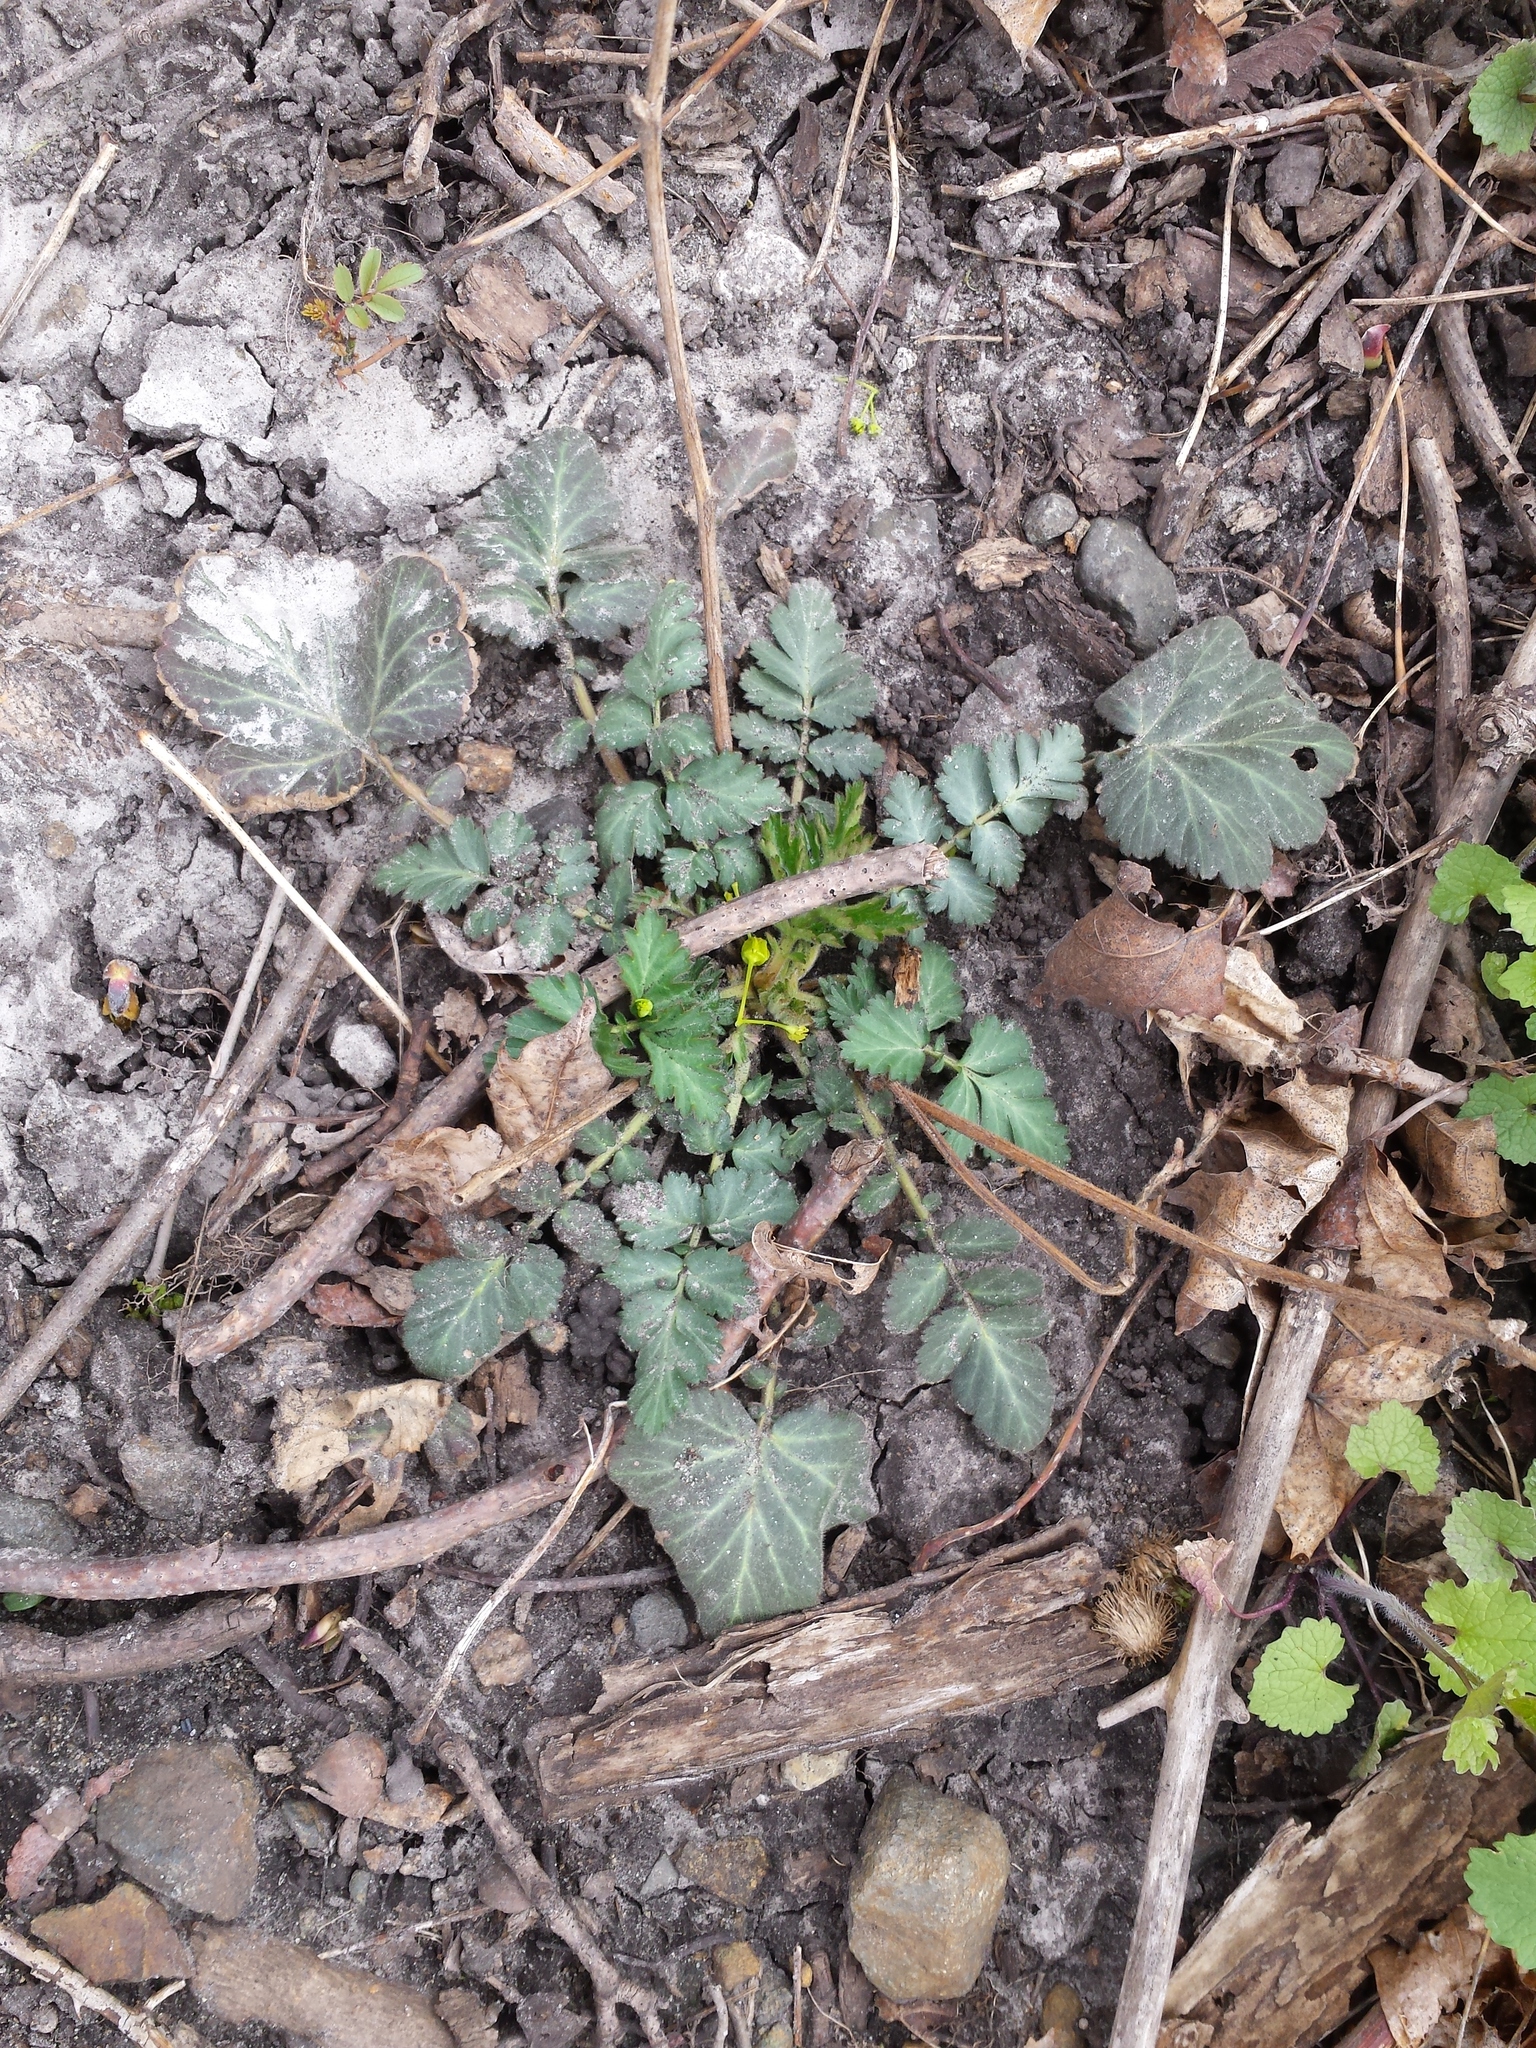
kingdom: Plantae
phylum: Tracheophyta
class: Magnoliopsida
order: Rosales
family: Rosaceae
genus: Geum
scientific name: Geum canadense
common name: White avens
